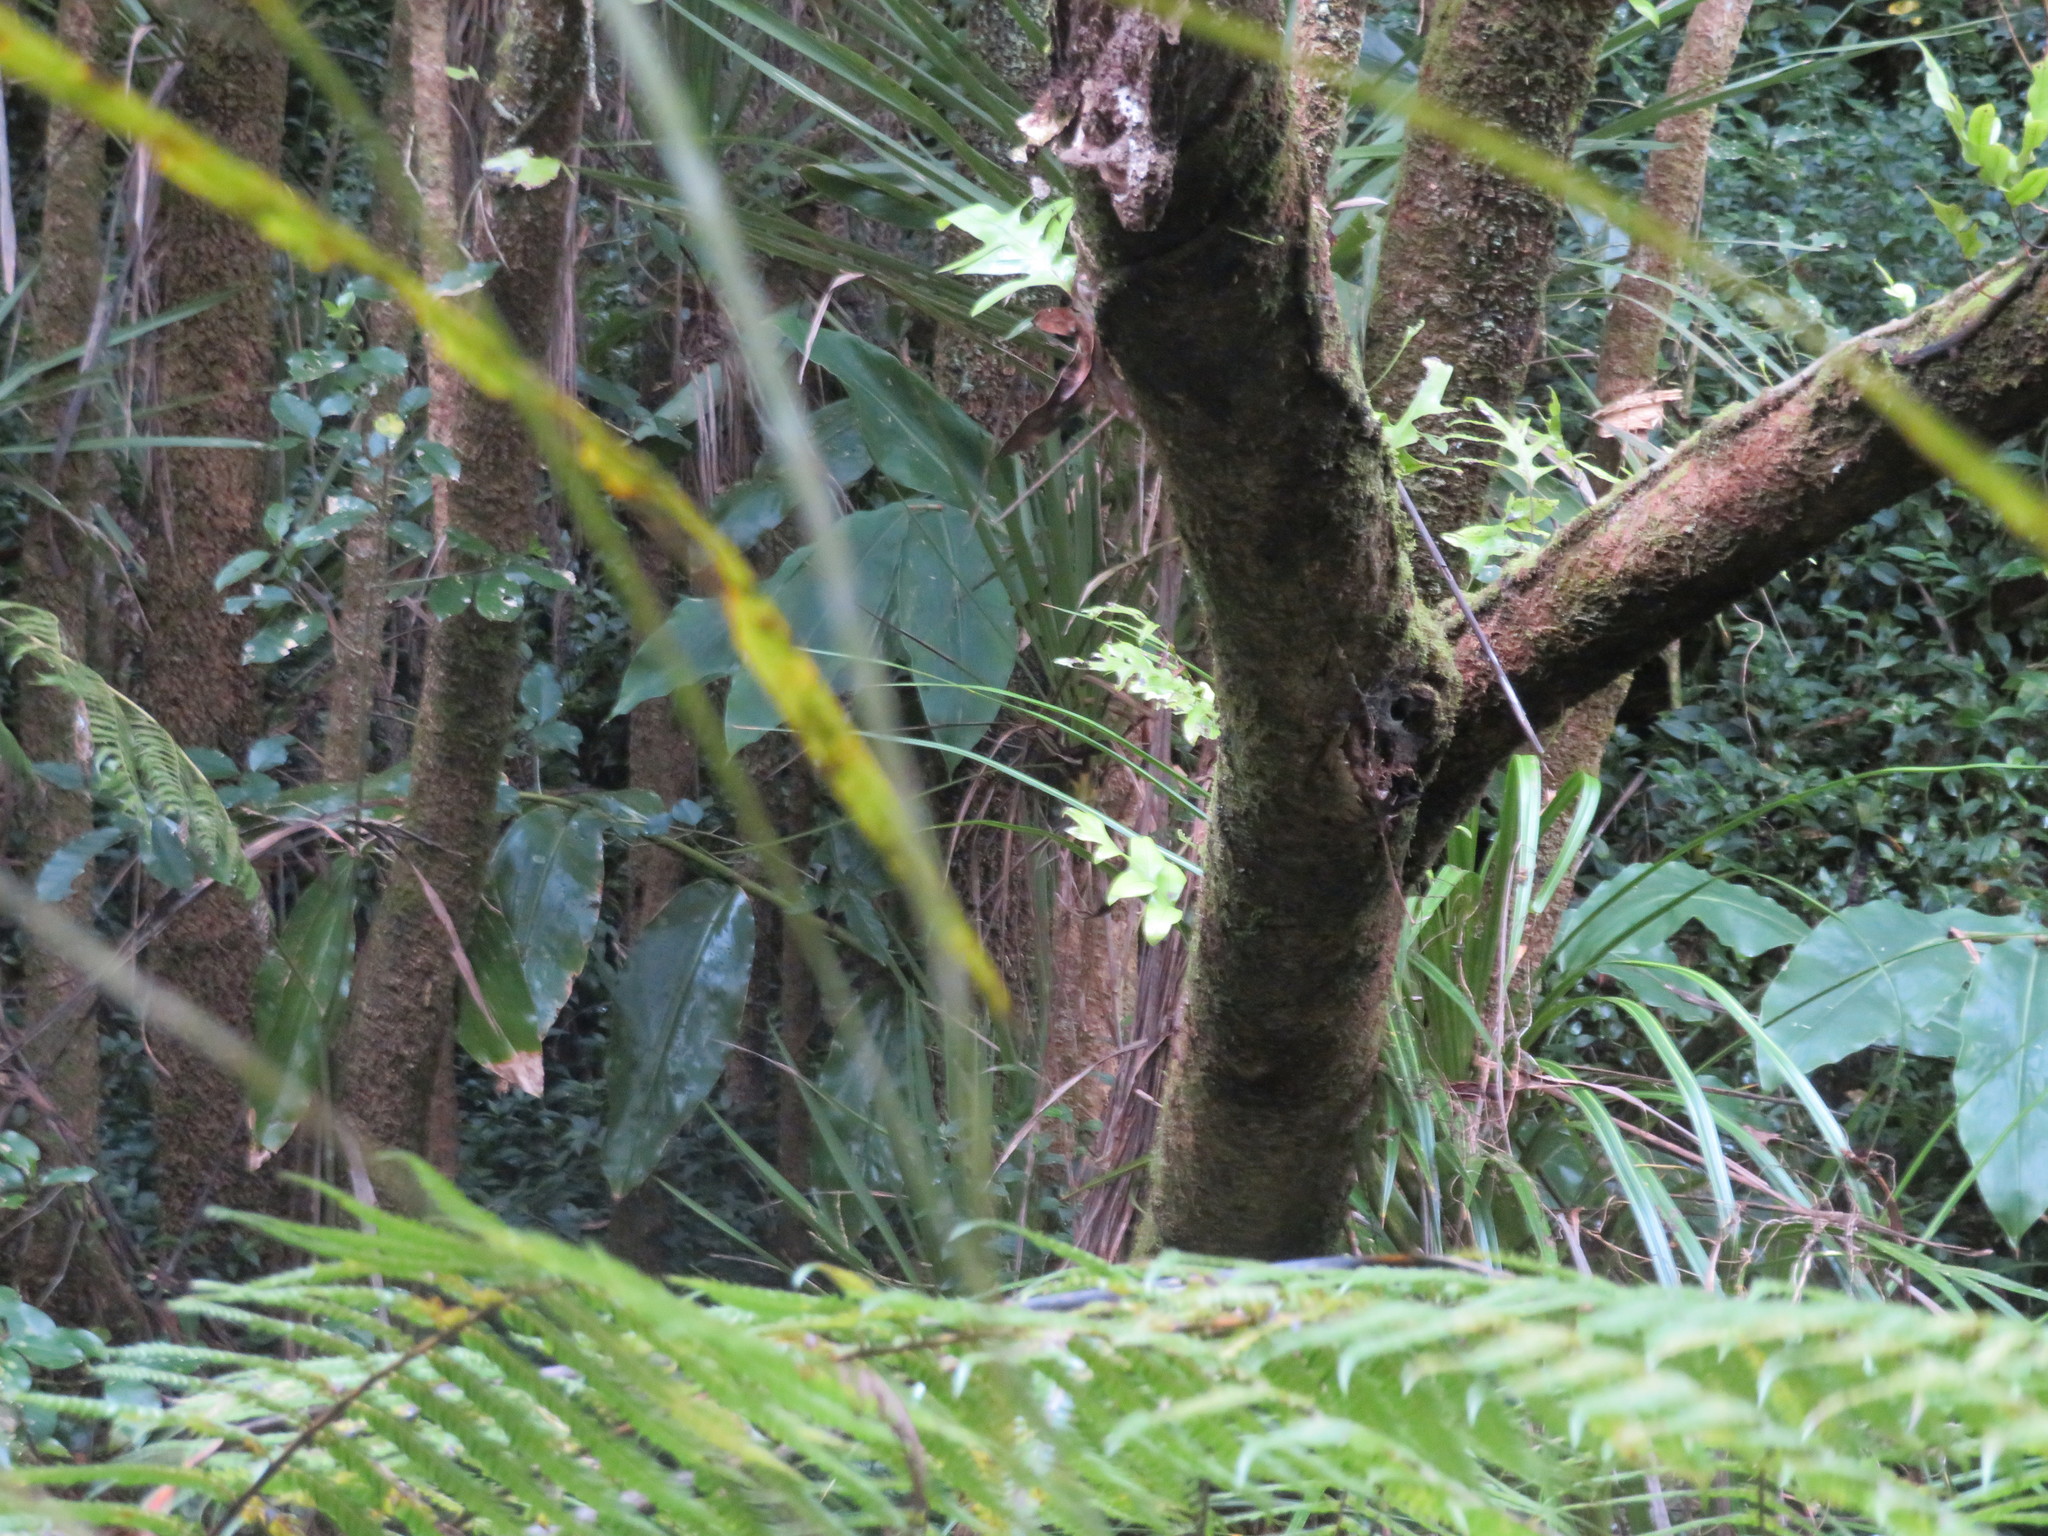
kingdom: Plantae
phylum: Tracheophyta
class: Liliopsida
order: Zingiberales
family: Zingiberaceae
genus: Hedychium
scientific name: Hedychium gardnerianum
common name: Himalayan ginger
